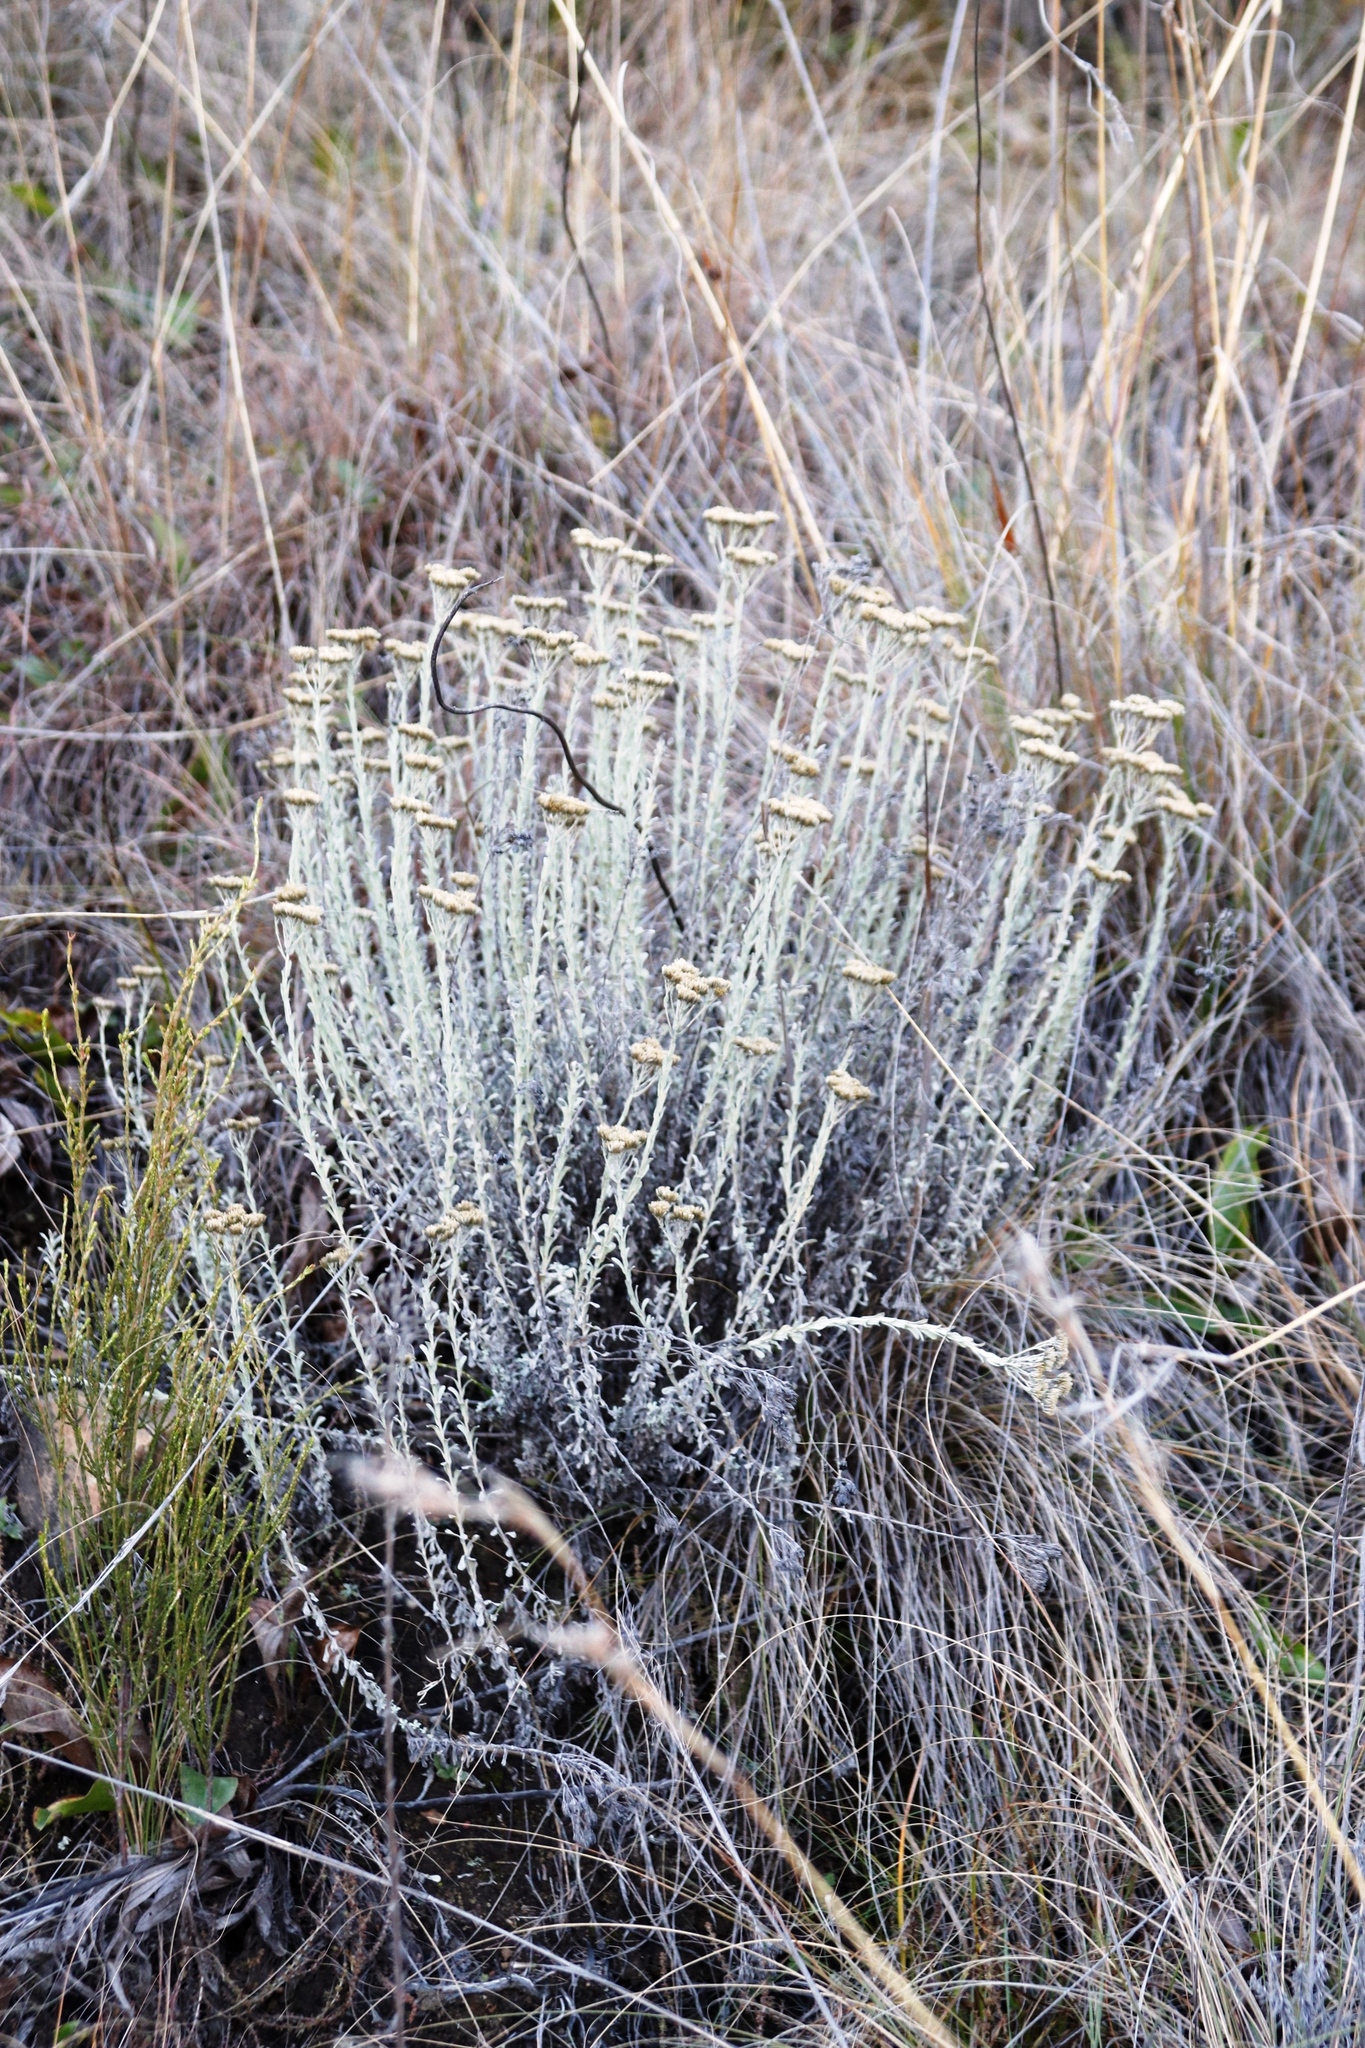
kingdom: Plantae
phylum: Tracheophyta
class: Magnoliopsida
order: Asterales
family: Asteraceae
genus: Metalasia
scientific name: Metalasia densa
